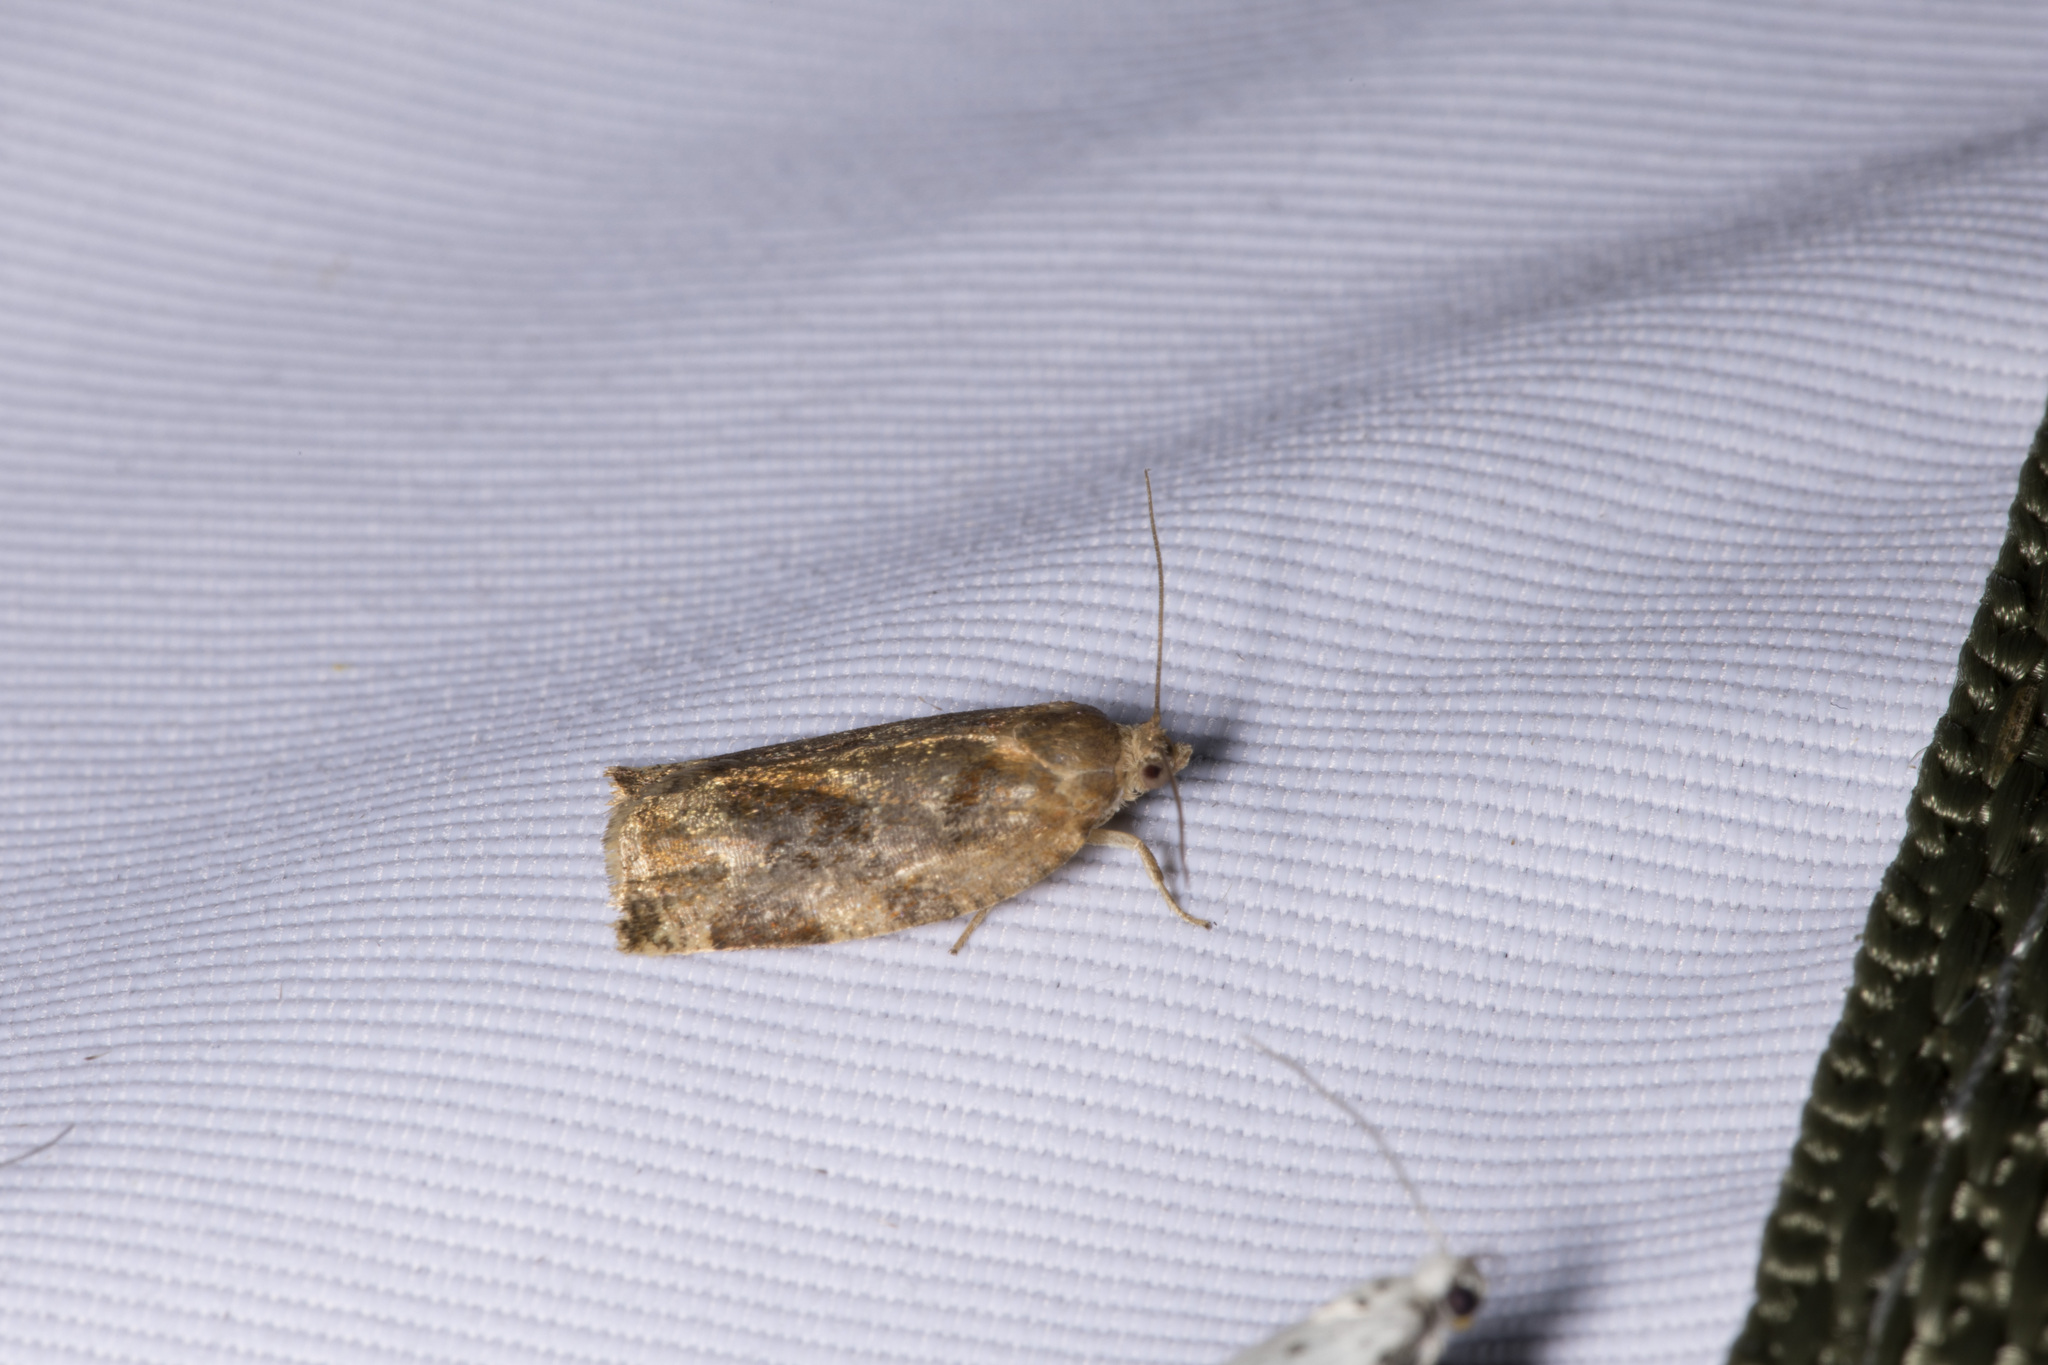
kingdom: Animalia
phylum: Arthropoda
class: Insecta
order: Lepidoptera
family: Tortricidae
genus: Archips
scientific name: Archips xylosteana
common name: Variegated golden tortrix
